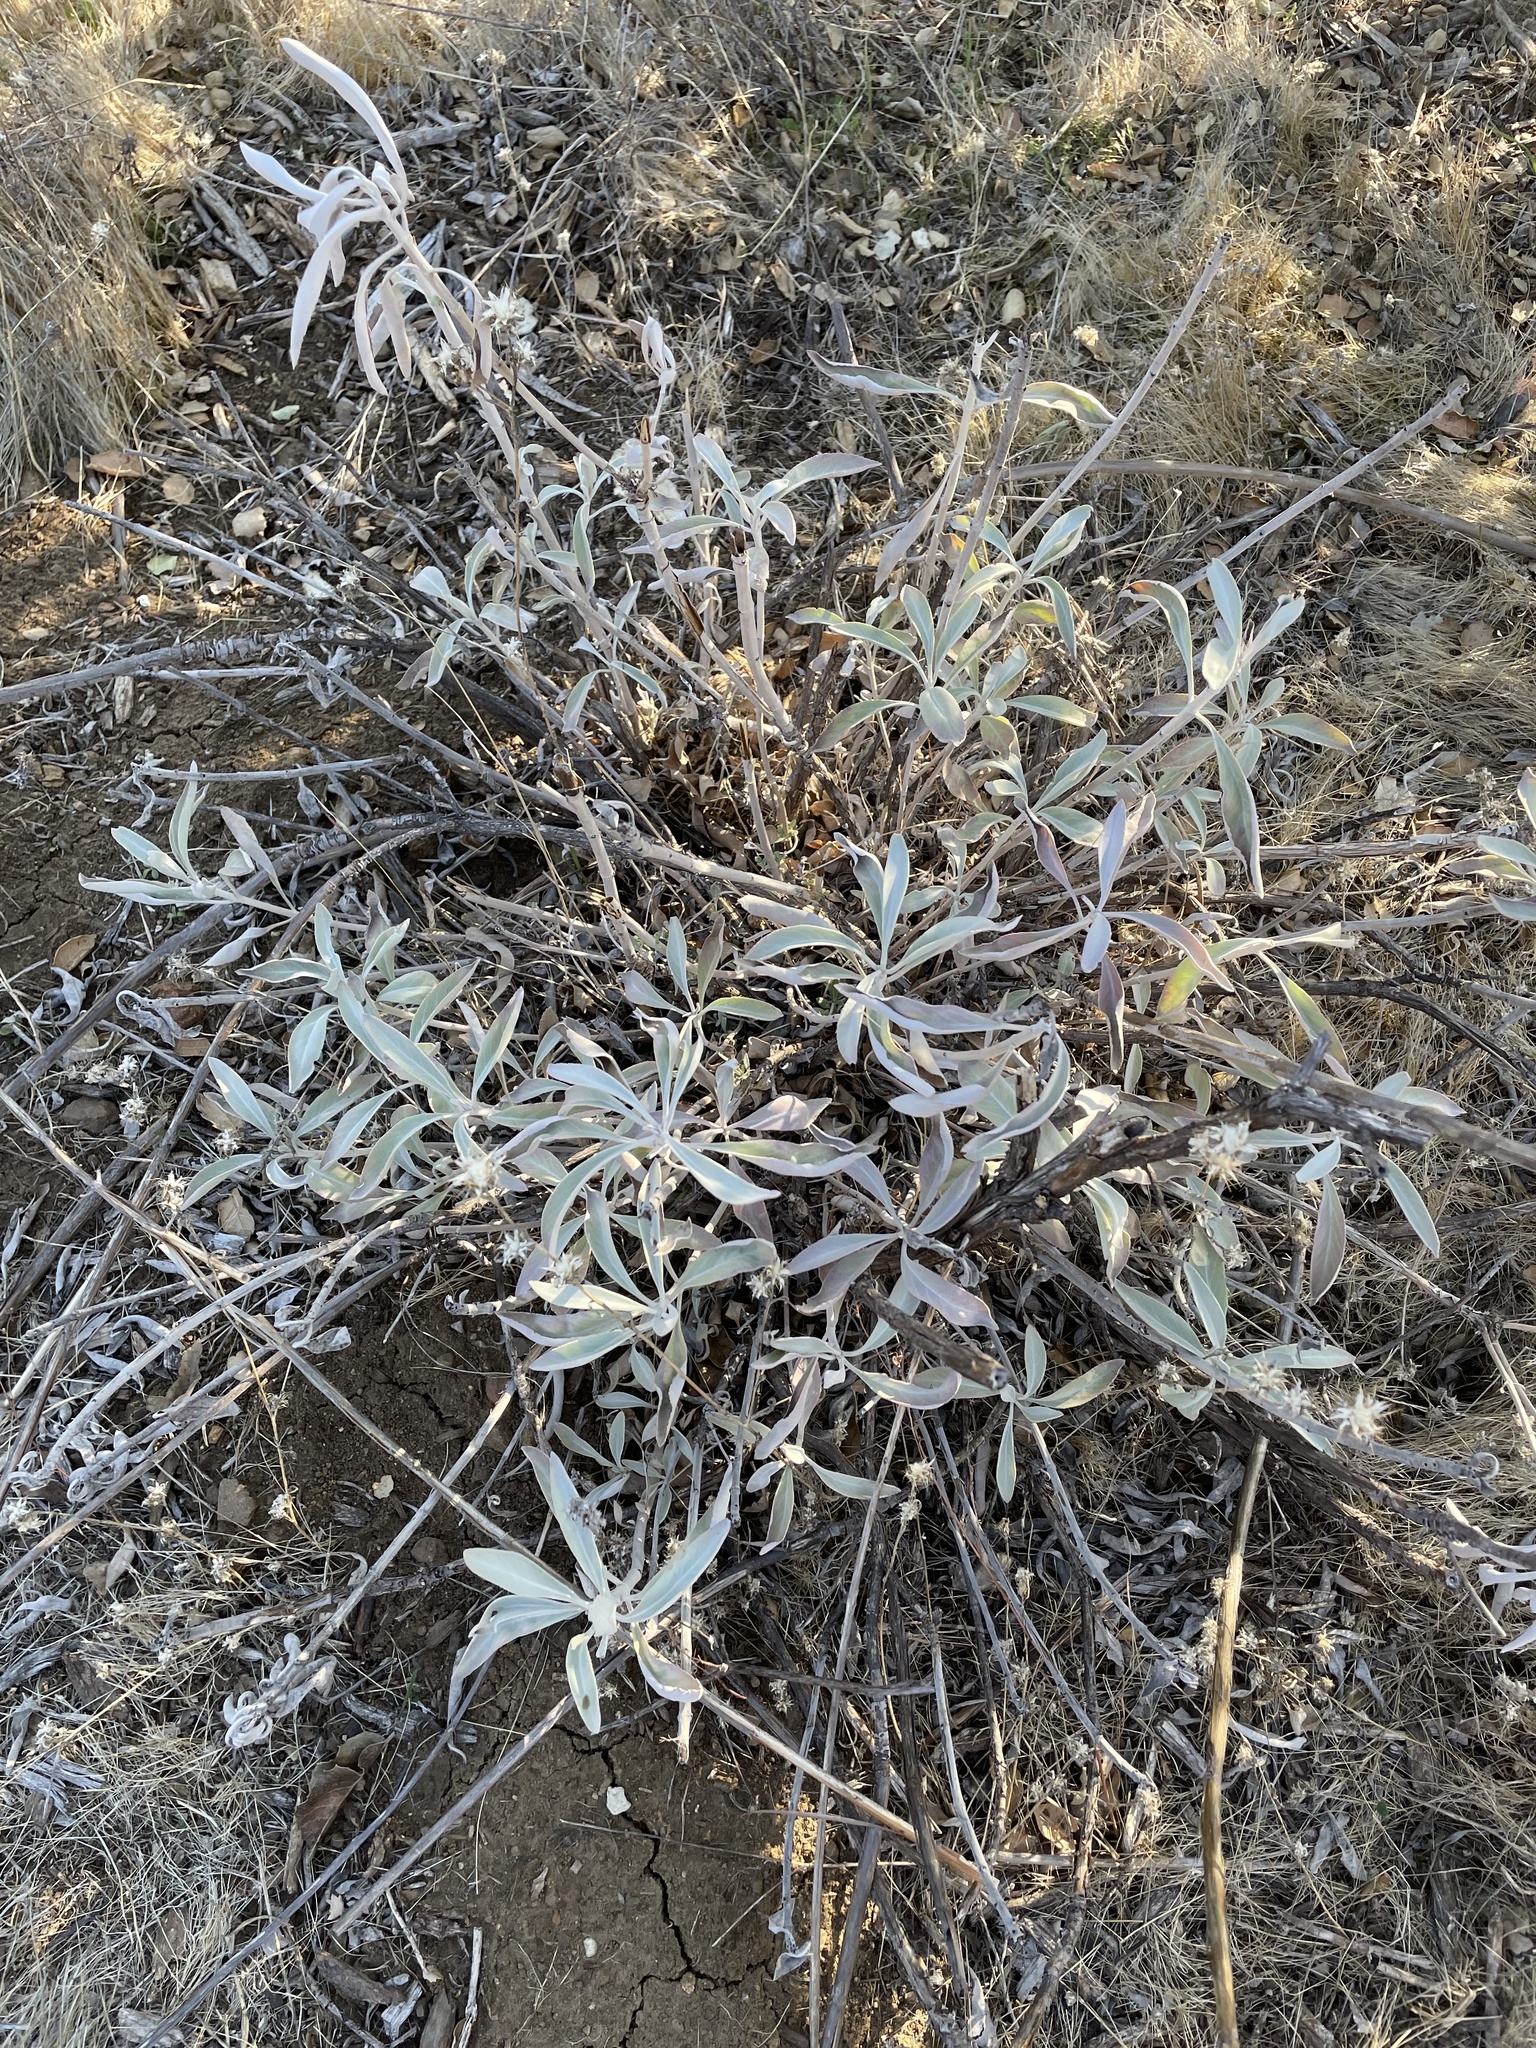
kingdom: Plantae
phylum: Tracheophyta
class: Magnoliopsida
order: Lamiales
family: Lamiaceae
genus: Salvia
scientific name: Salvia apiana
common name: White sage
